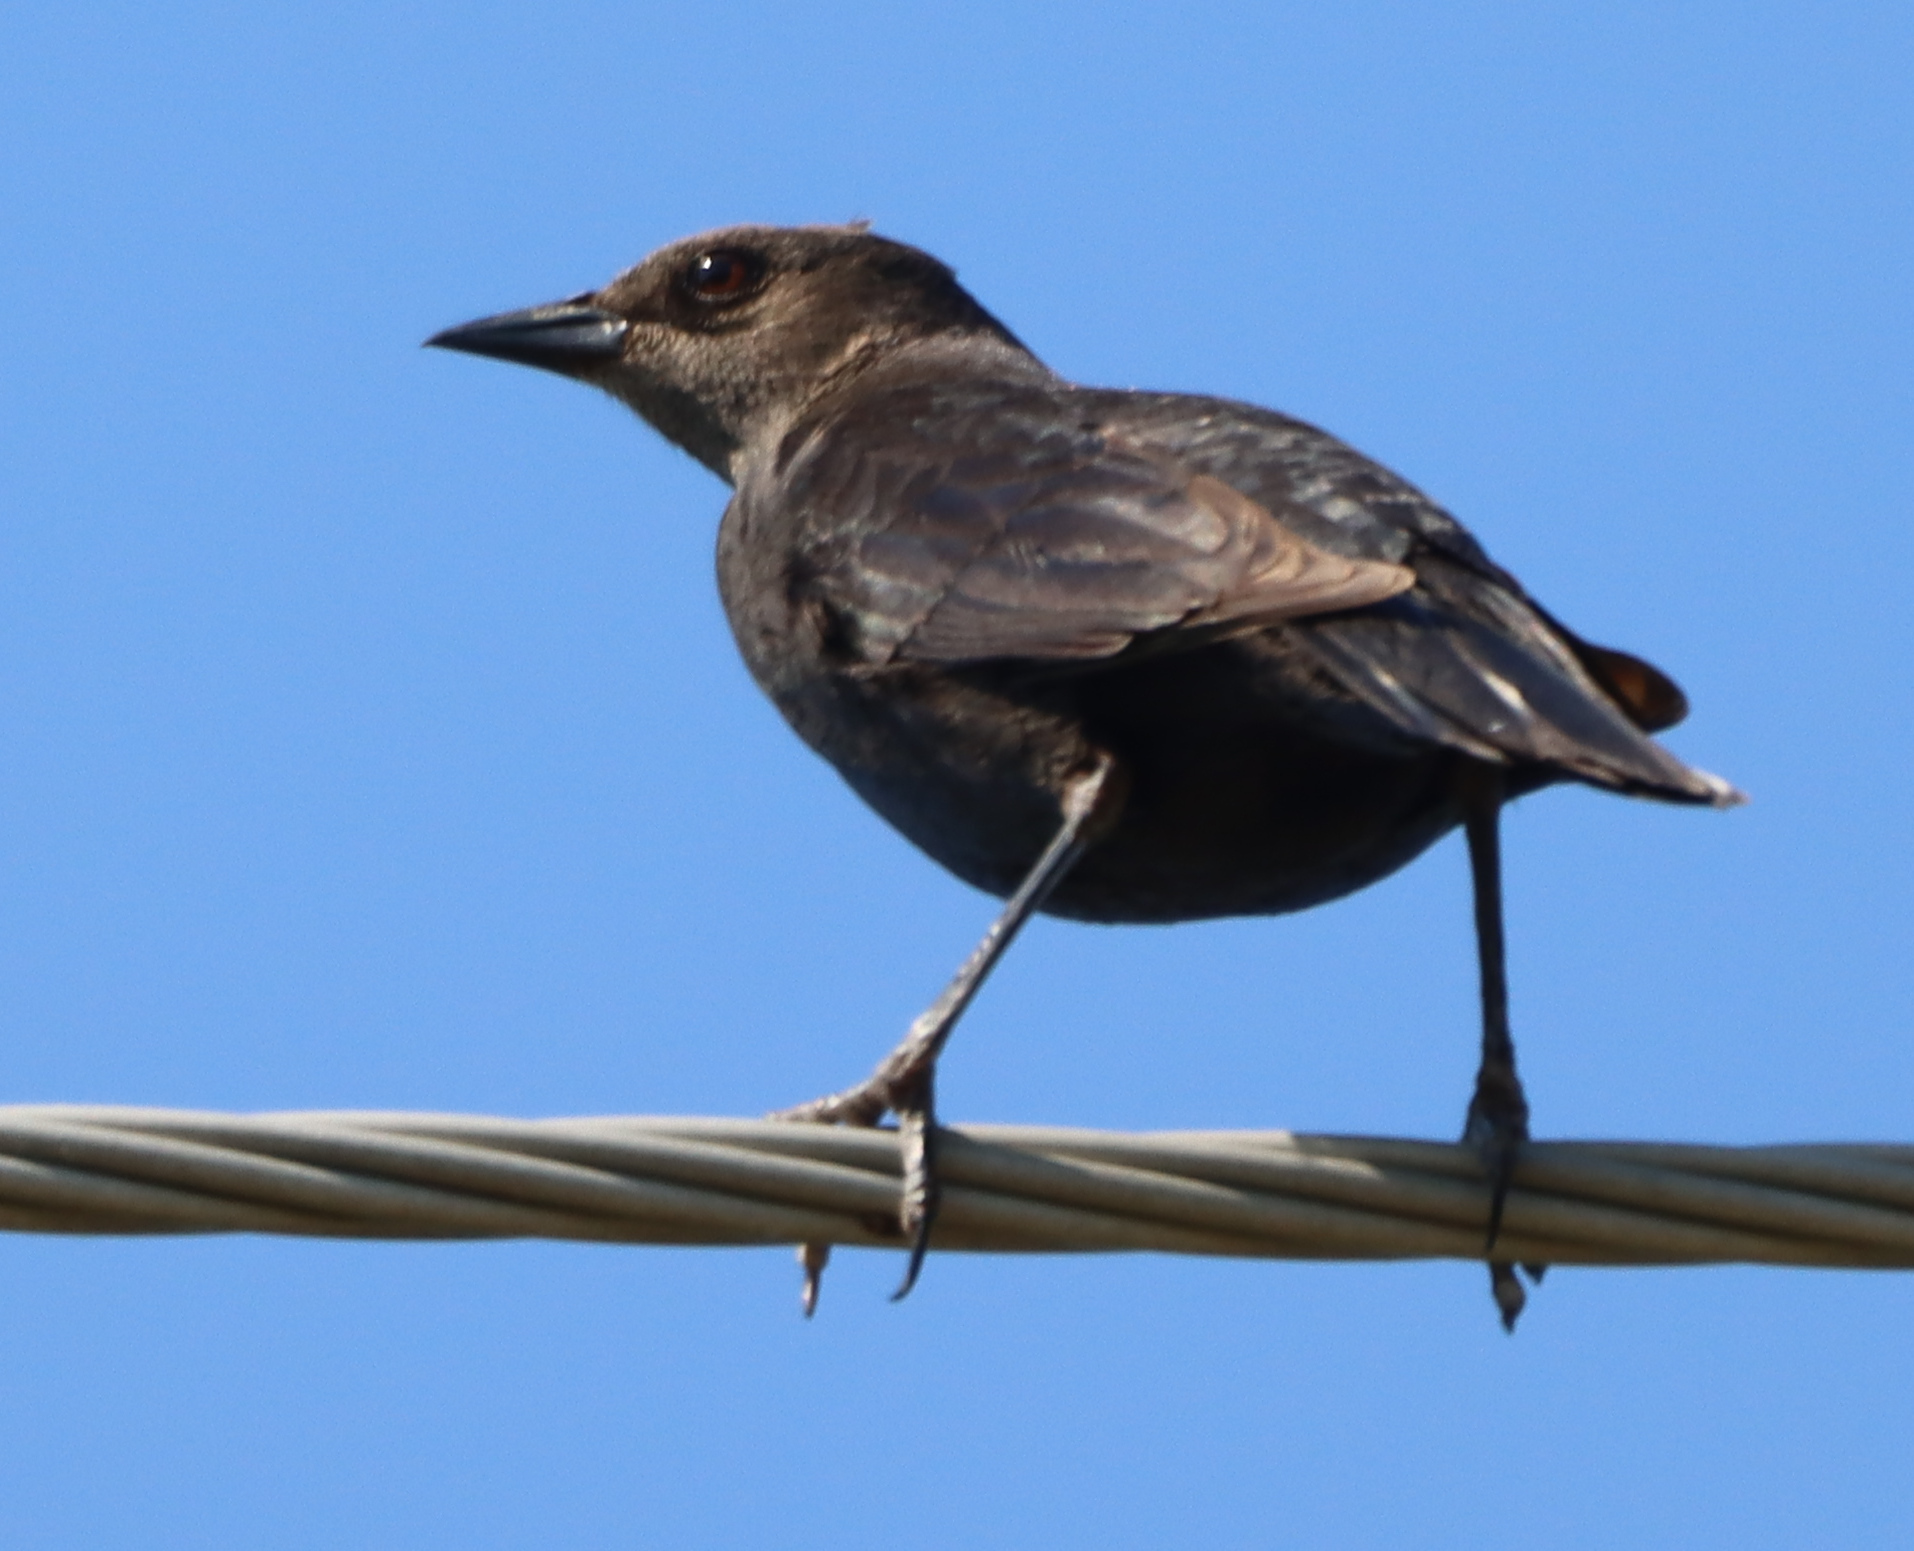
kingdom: Animalia
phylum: Chordata
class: Aves
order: Passeriformes
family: Icteridae
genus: Euphagus
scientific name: Euphagus cyanocephalus
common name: Brewer's blackbird
